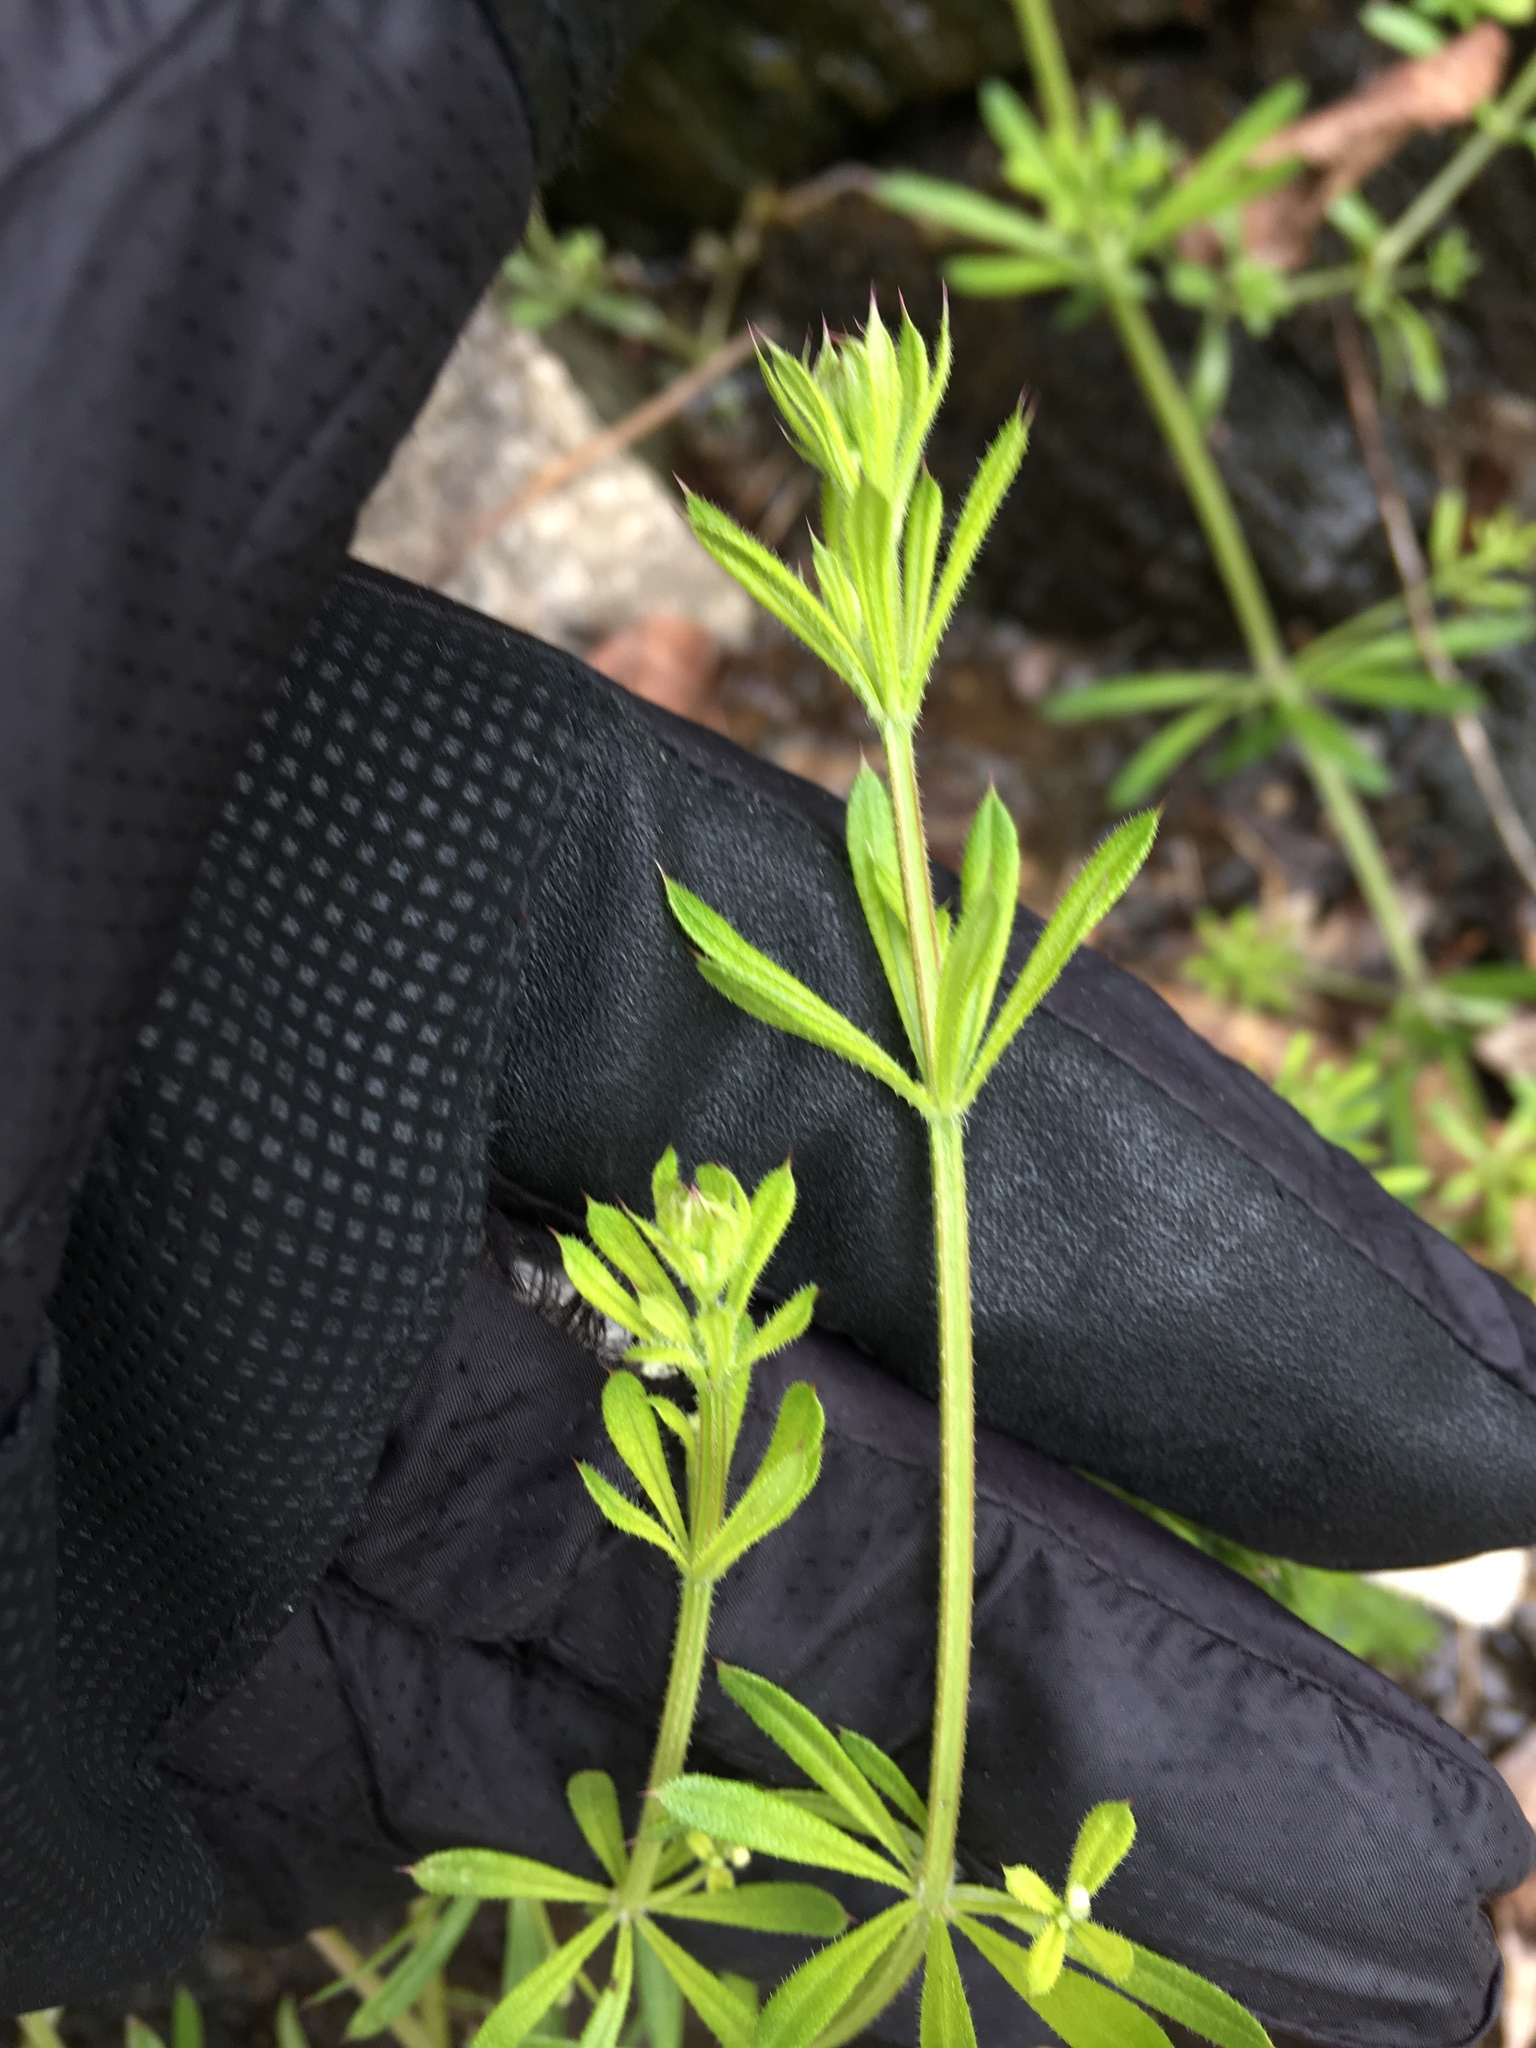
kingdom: Plantae
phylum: Tracheophyta
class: Magnoliopsida
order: Gentianales
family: Rubiaceae
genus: Galium
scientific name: Galium aparine
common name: Cleavers
